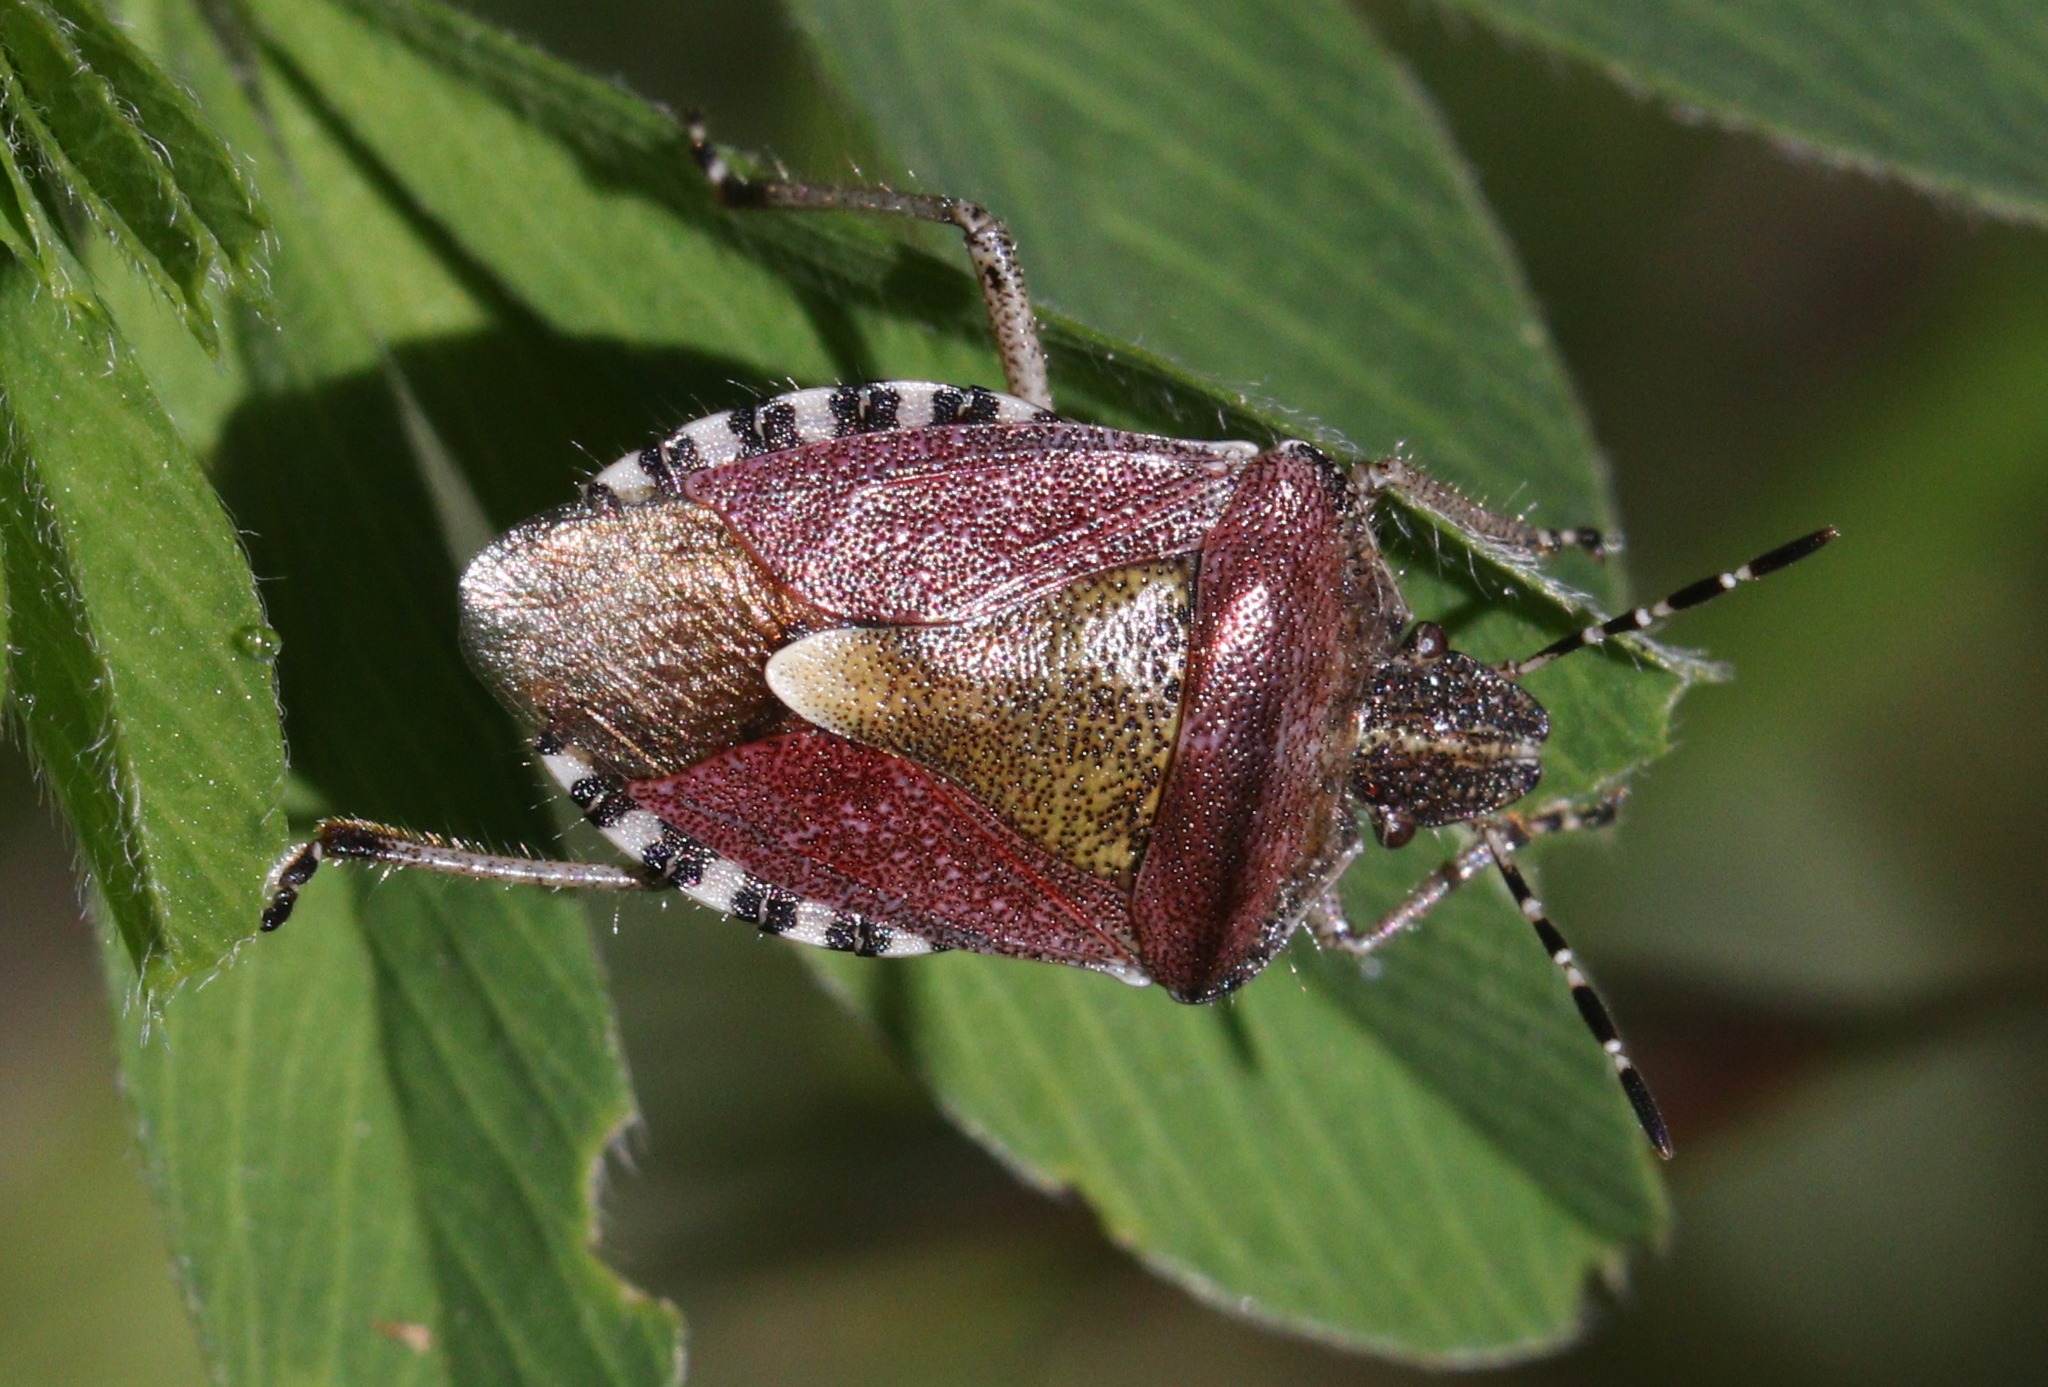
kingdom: Animalia
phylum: Arthropoda
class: Insecta
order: Hemiptera
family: Pentatomidae
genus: Dolycoris
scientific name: Dolycoris baccarum
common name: Sloe bug
